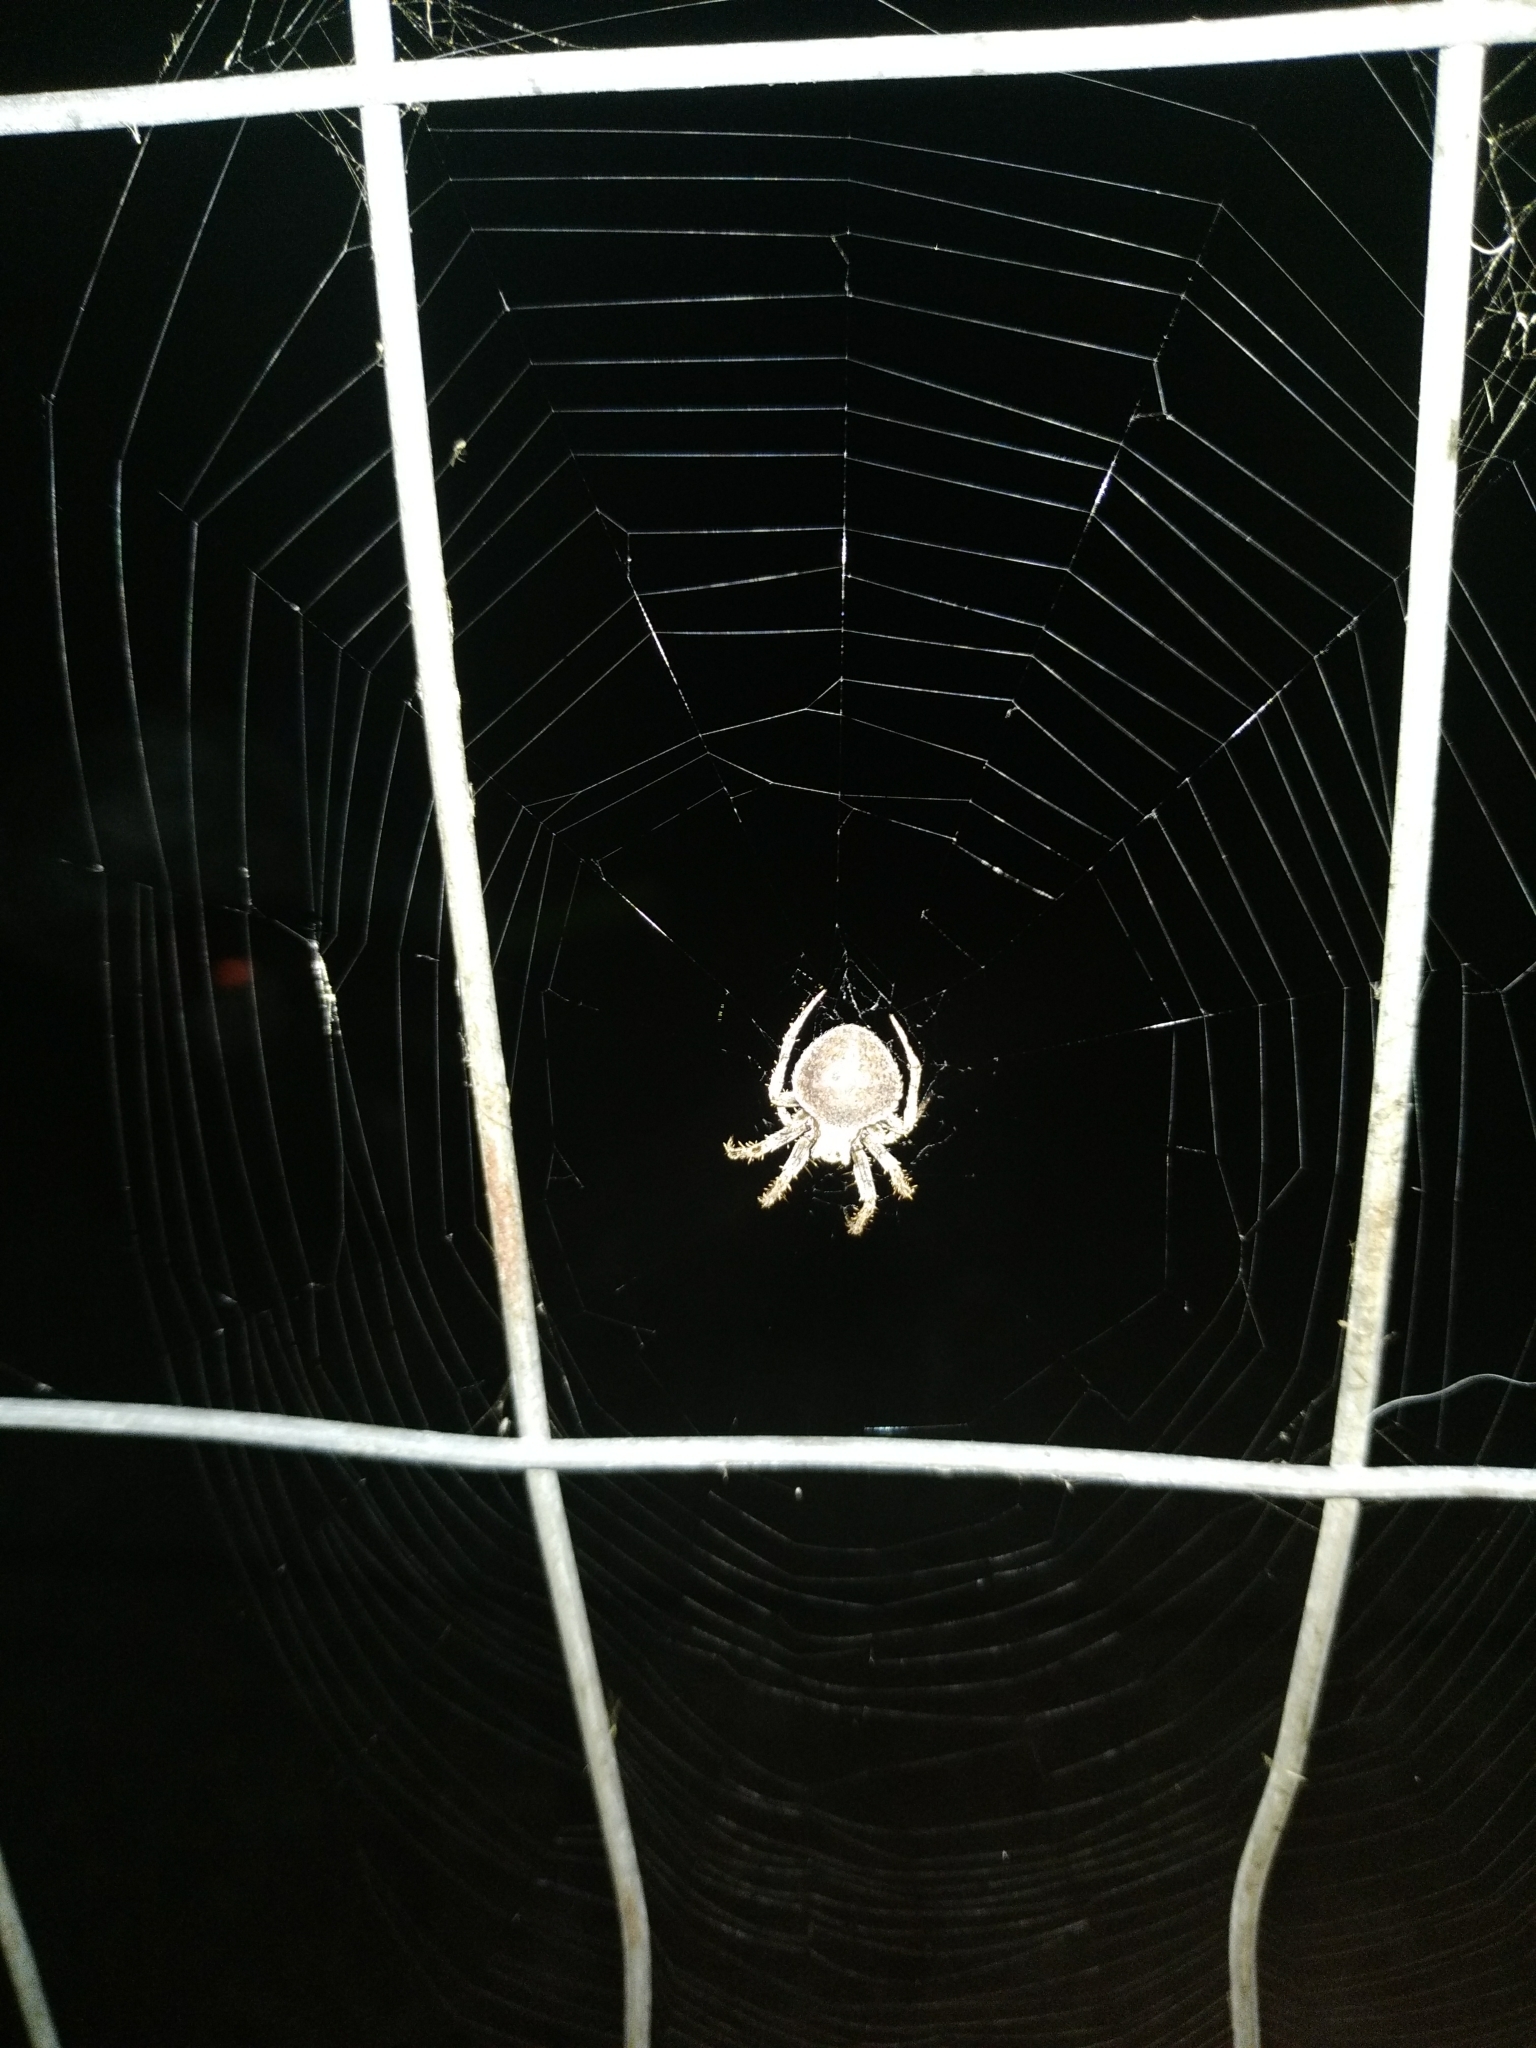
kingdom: Animalia
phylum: Arthropoda
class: Arachnida
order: Araneae
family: Araneidae
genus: Neoscona
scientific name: Neoscona subfusca
